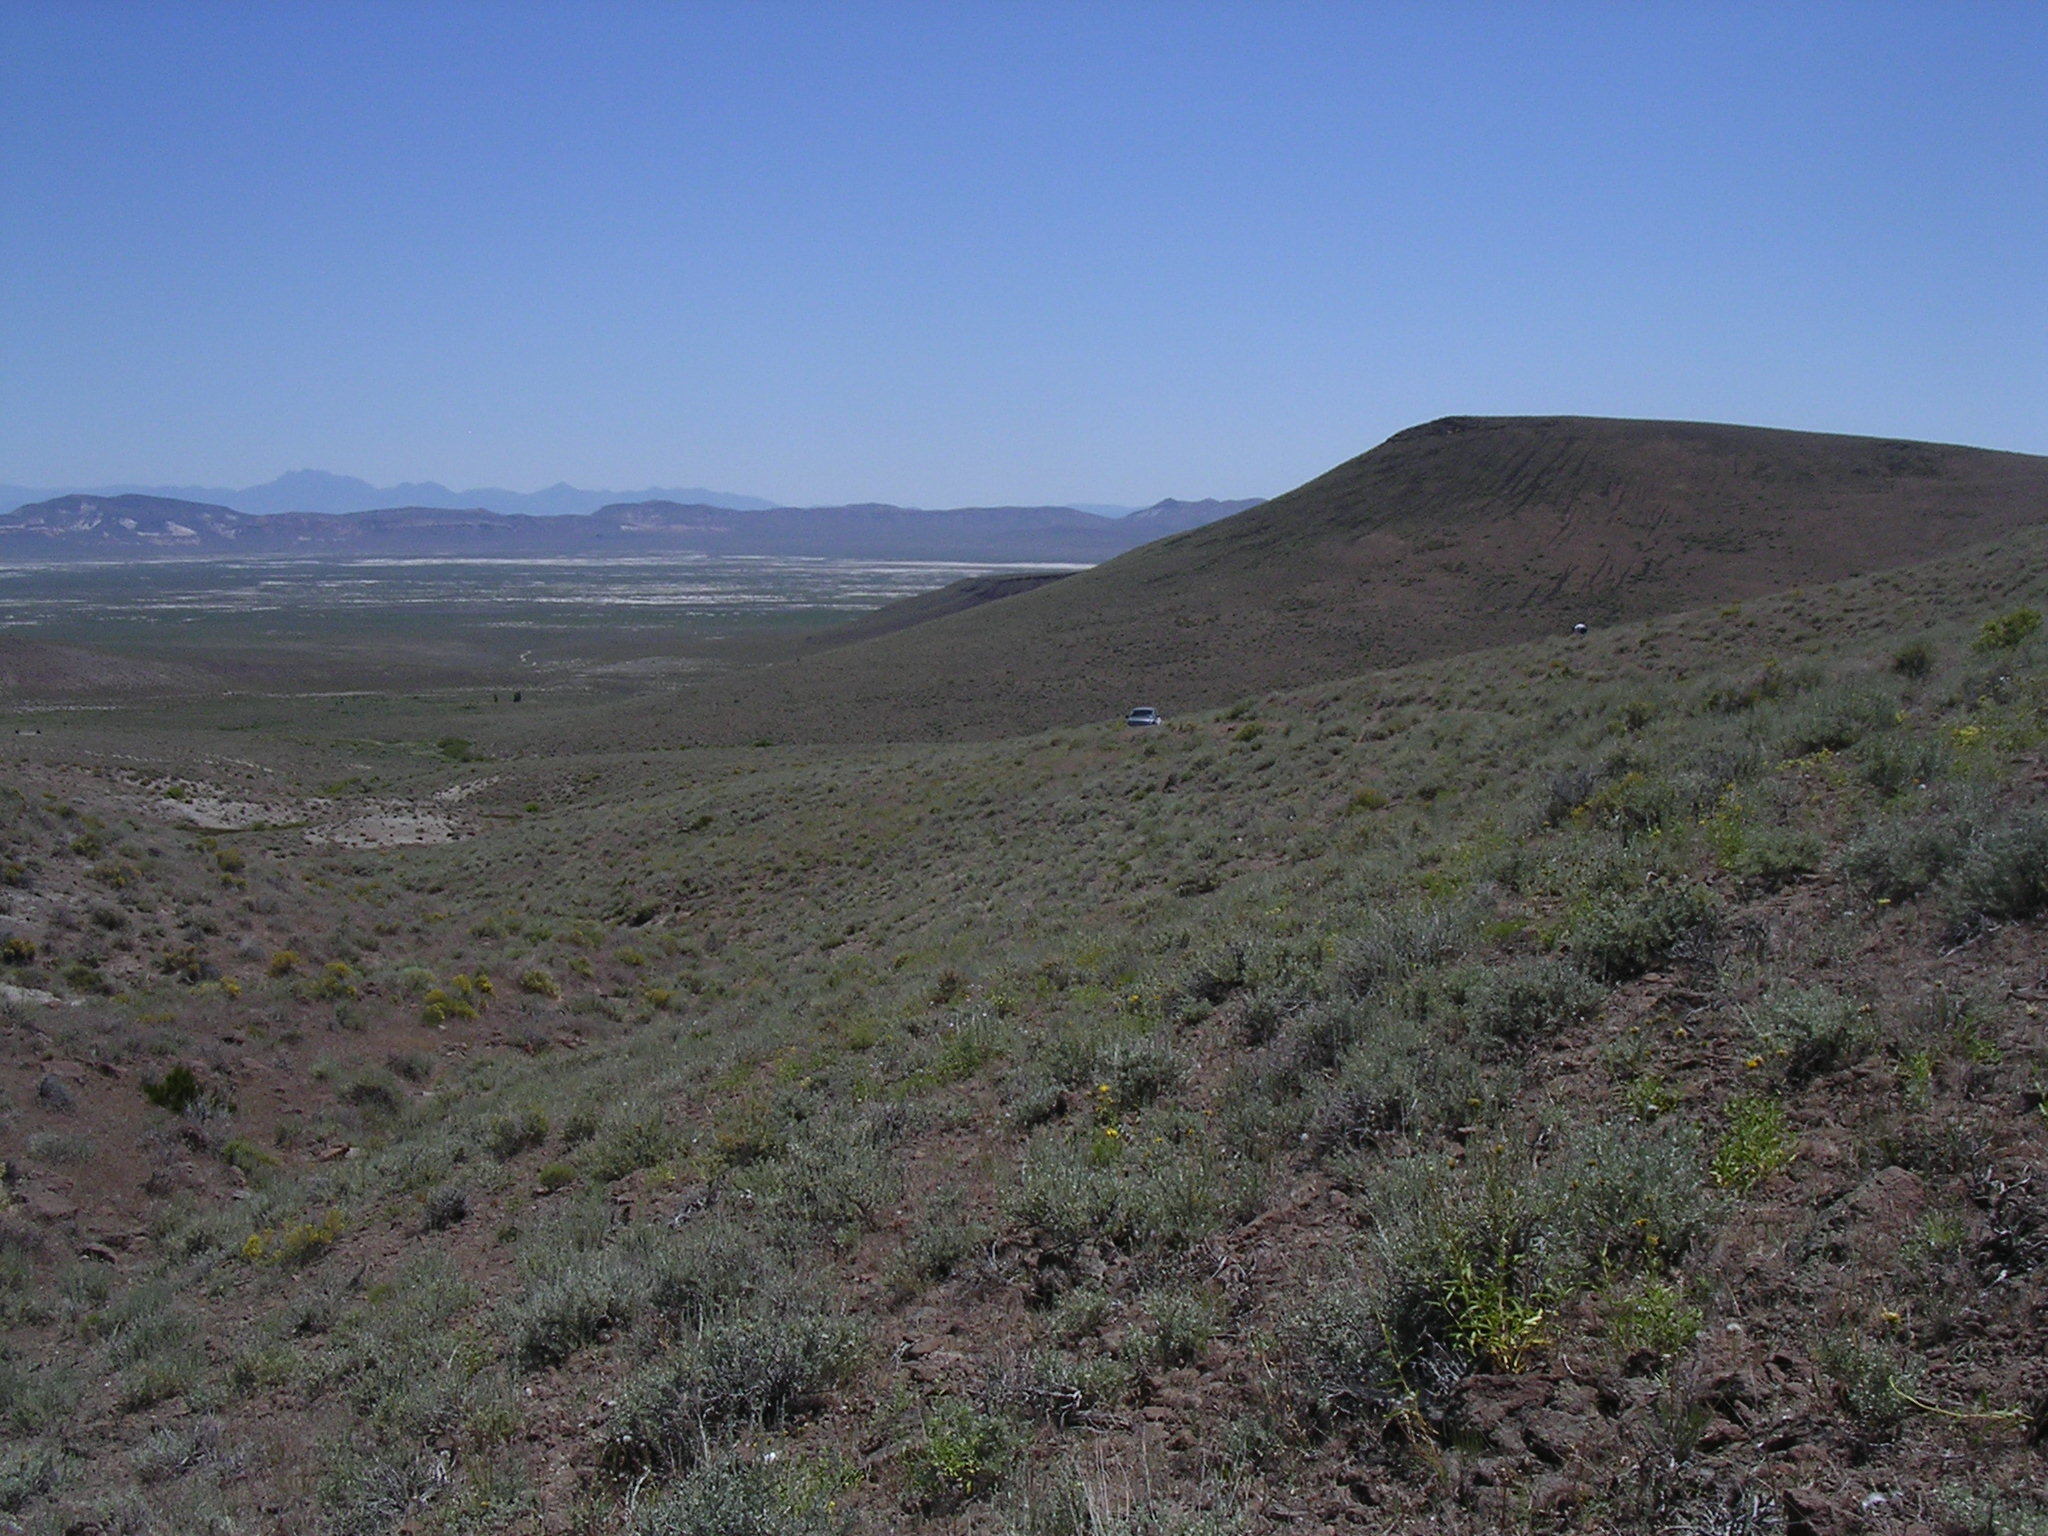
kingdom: Plantae
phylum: Tracheophyta
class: Magnoliopsida
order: Asterales
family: Asteraceae
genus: Helianthus
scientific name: Helianthus cusickii
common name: Cusick's sunflower
